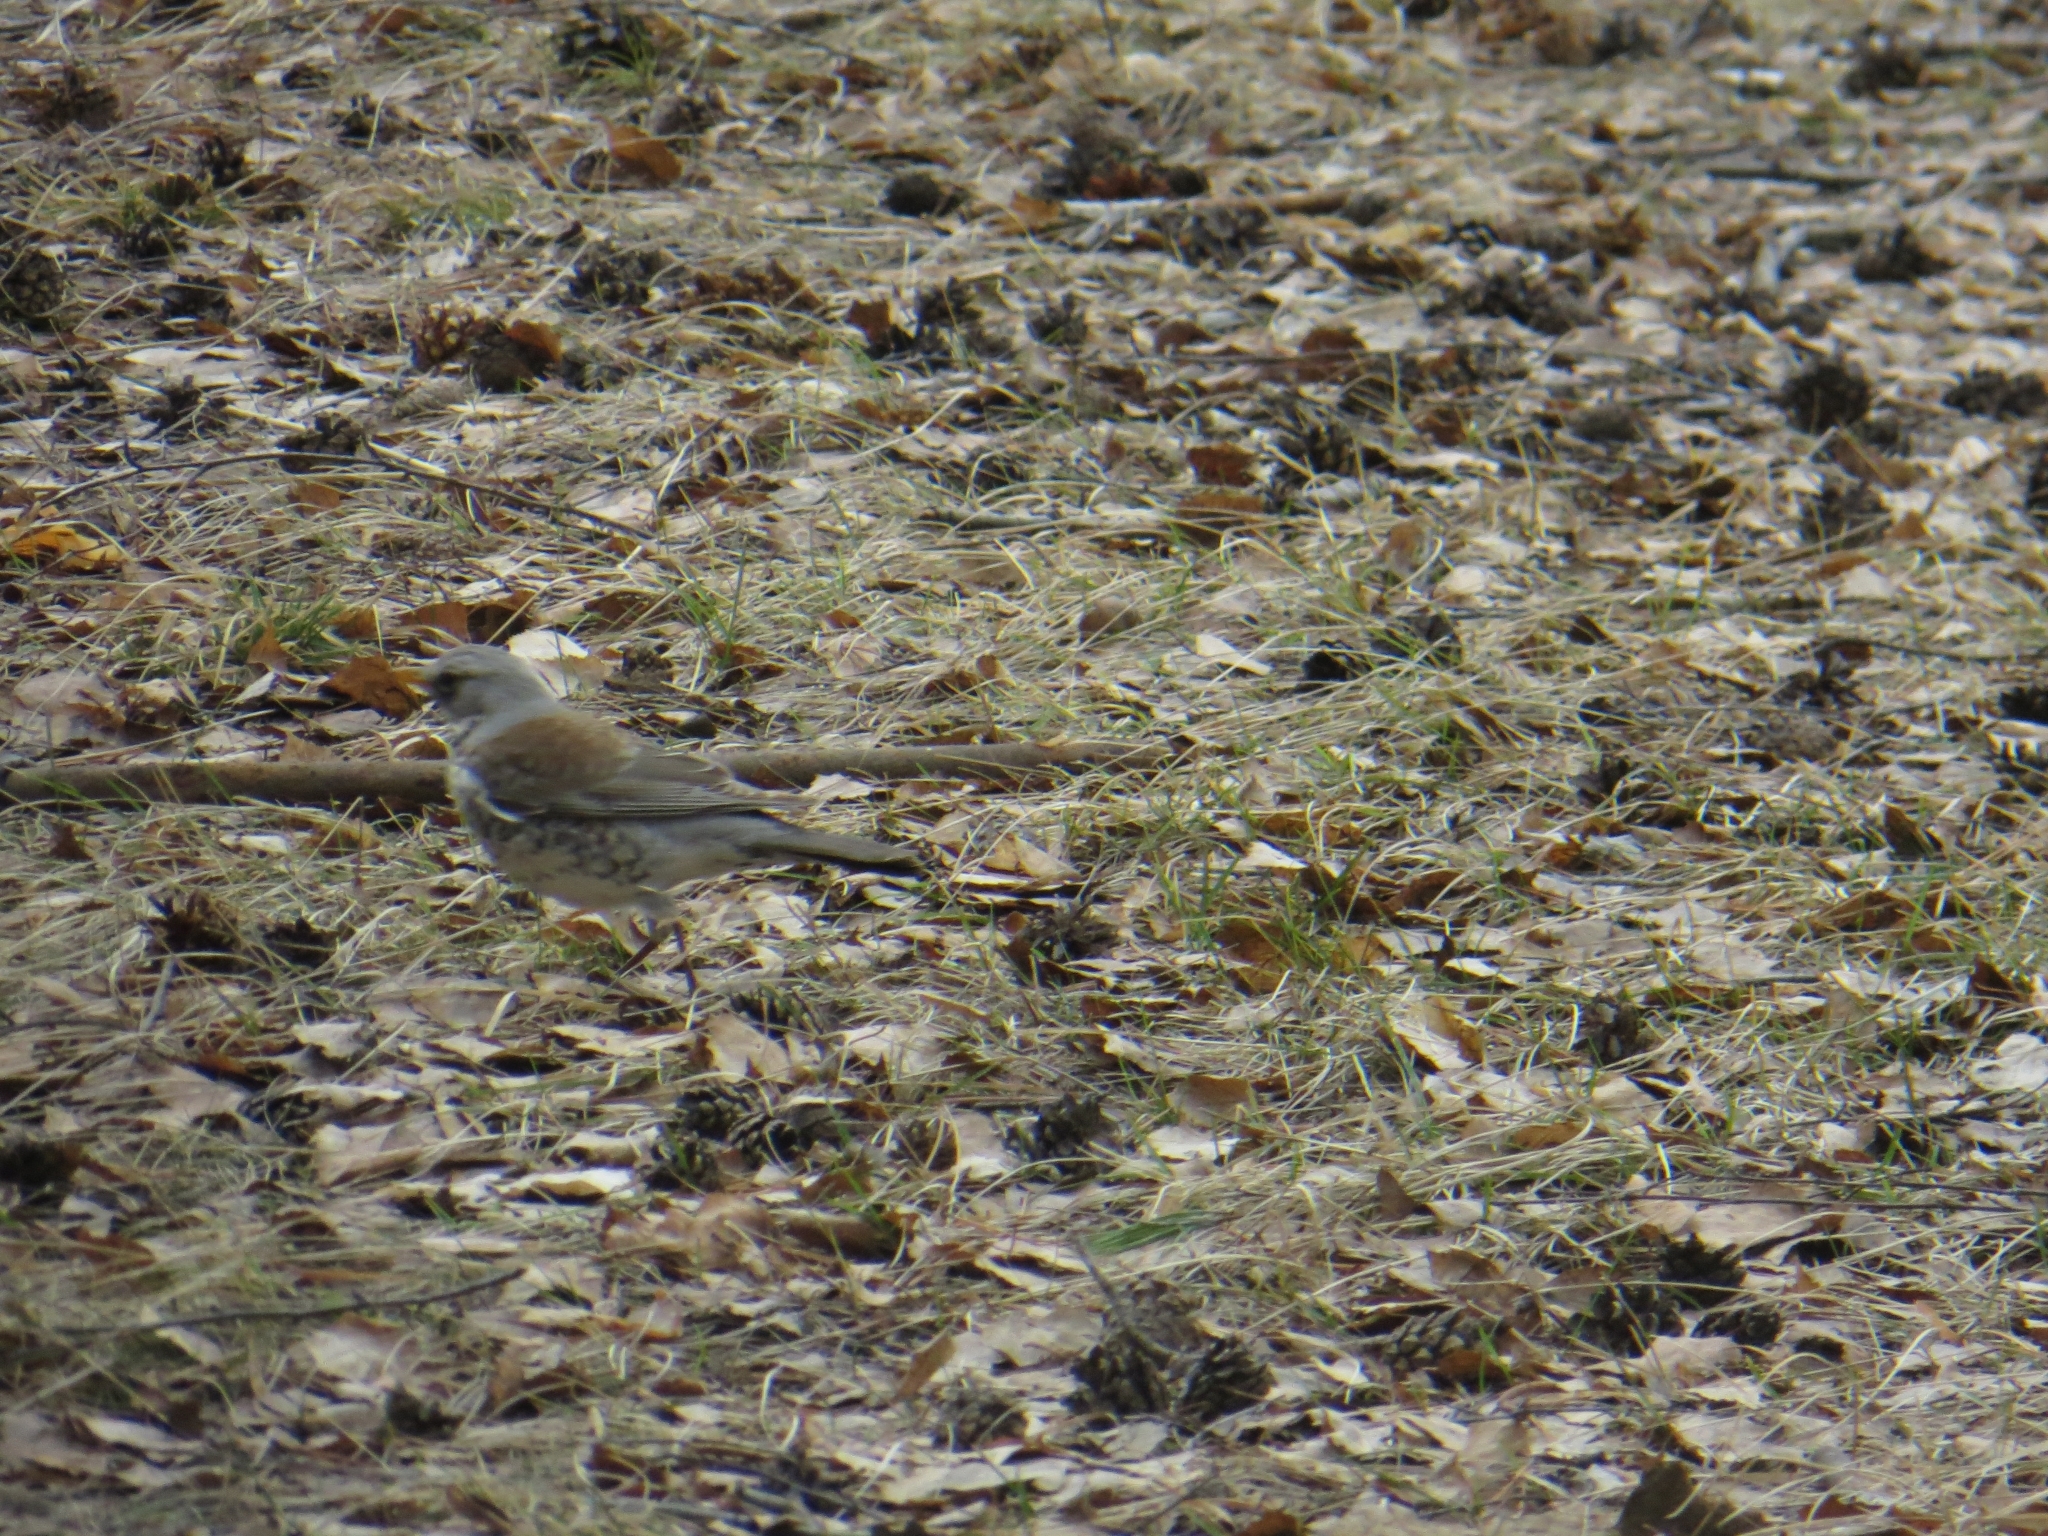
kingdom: Animalia
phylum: Chordata
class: Aves
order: Passeriformes
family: Turdidae
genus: Turdus
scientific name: Turdus pilaris
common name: Fieldfare
